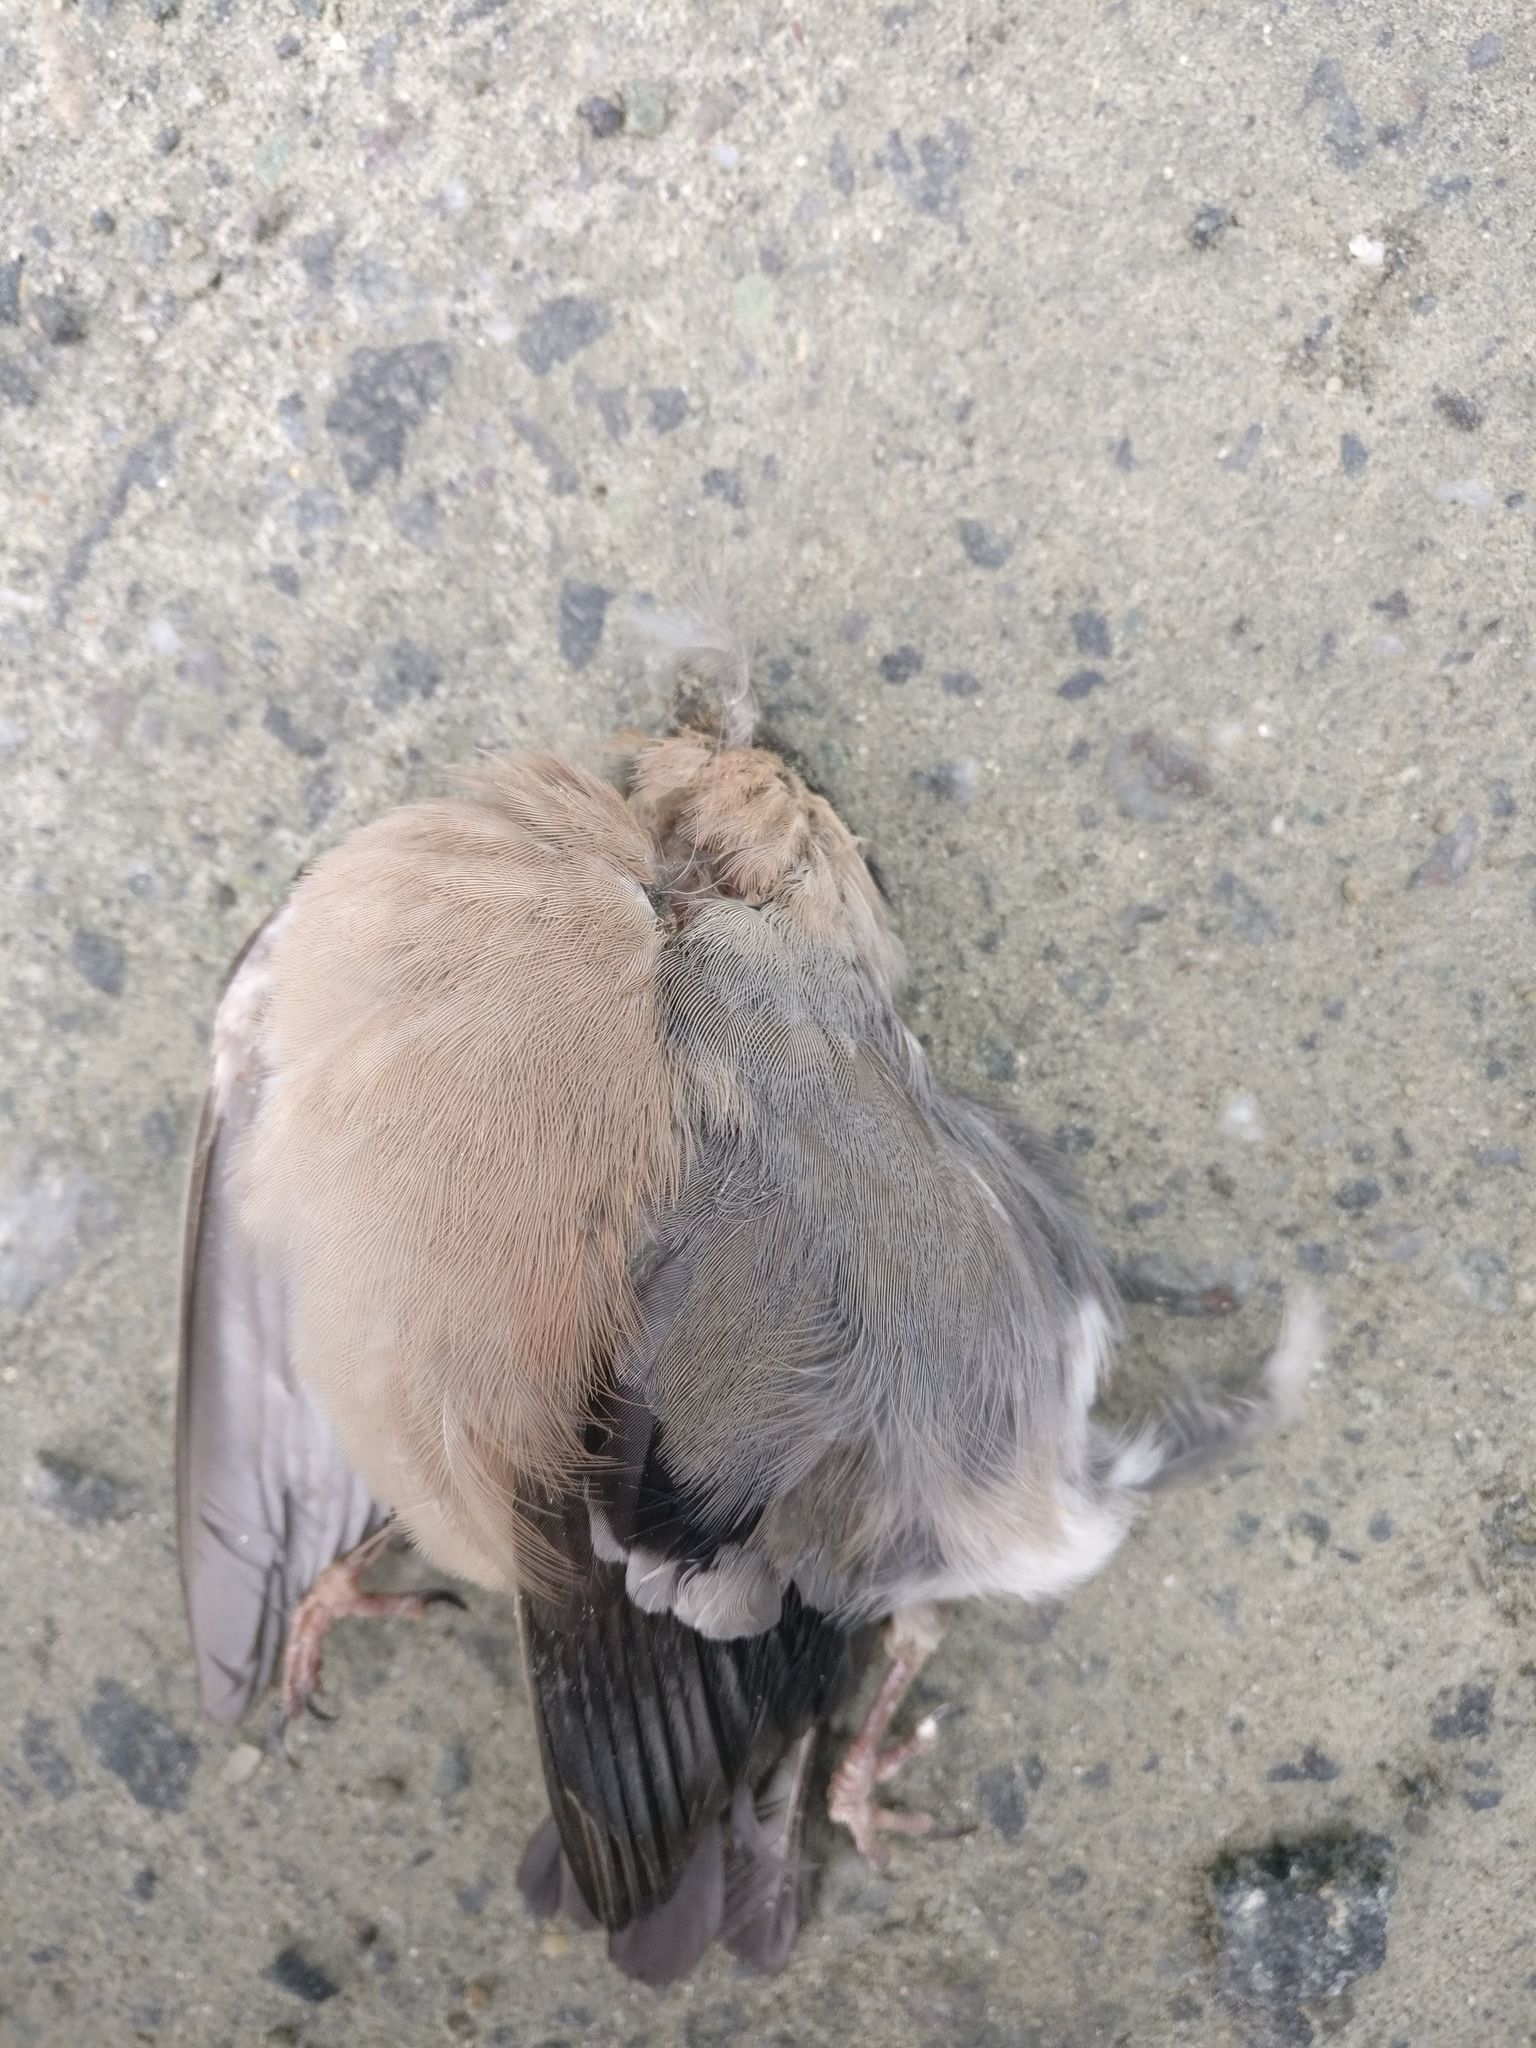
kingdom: Animalia
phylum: Chordata
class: Aves
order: Passeriformes
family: Fringillidae
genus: Pyrrhula
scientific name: Pyrrhula pyrrhula
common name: Eurasian bullfinch
